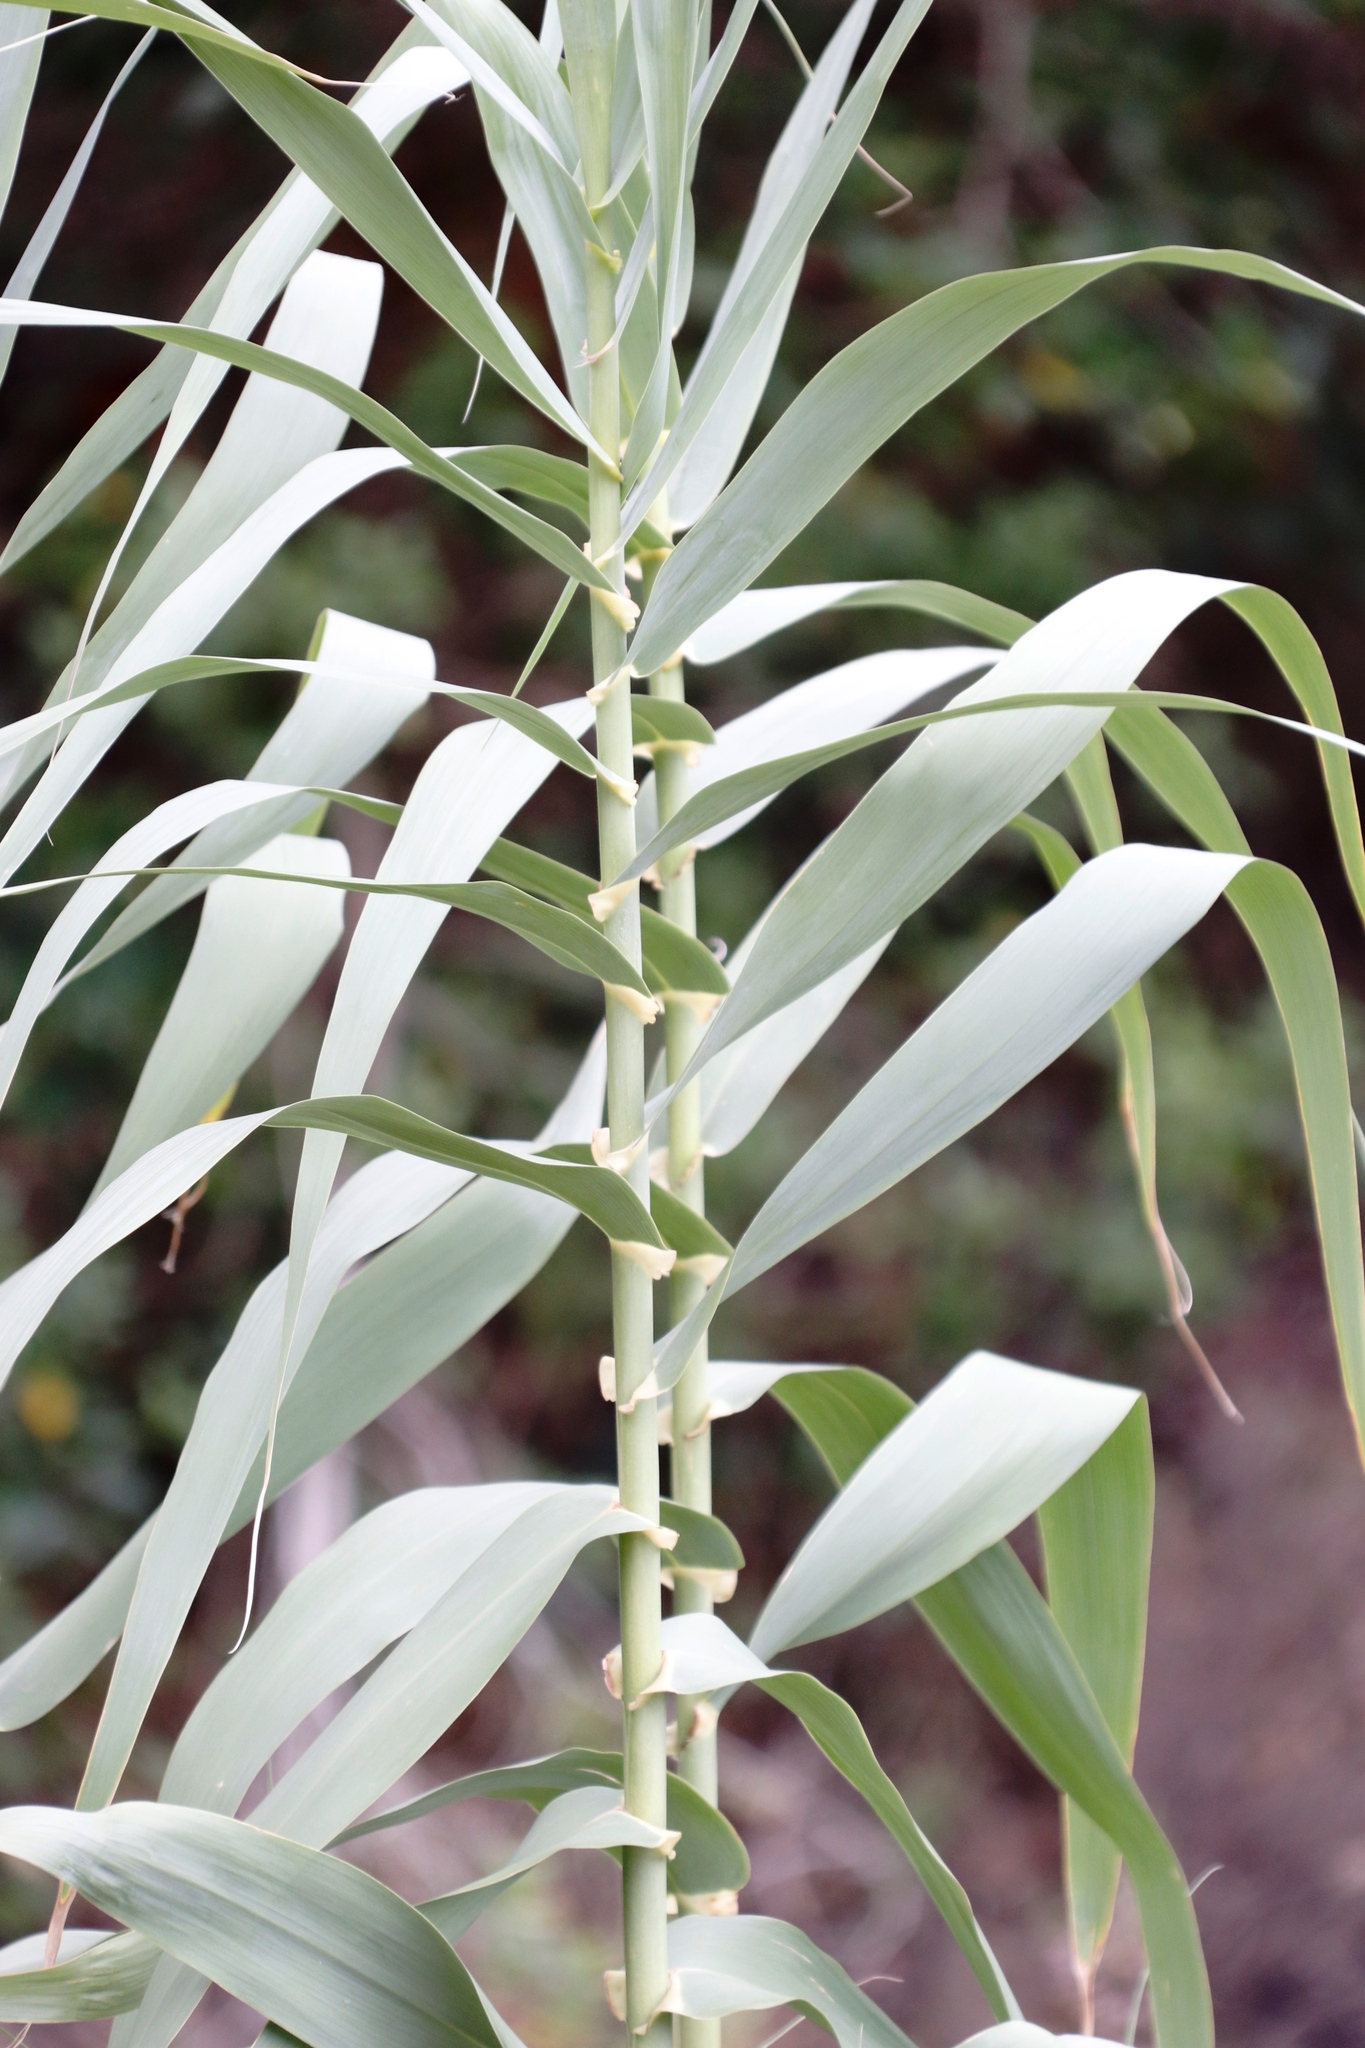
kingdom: Plantae
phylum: Tracheophyta
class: Liliopsida
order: Poales
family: Poaceae
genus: Phragmites
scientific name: Phragmites australis
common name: Common reed
